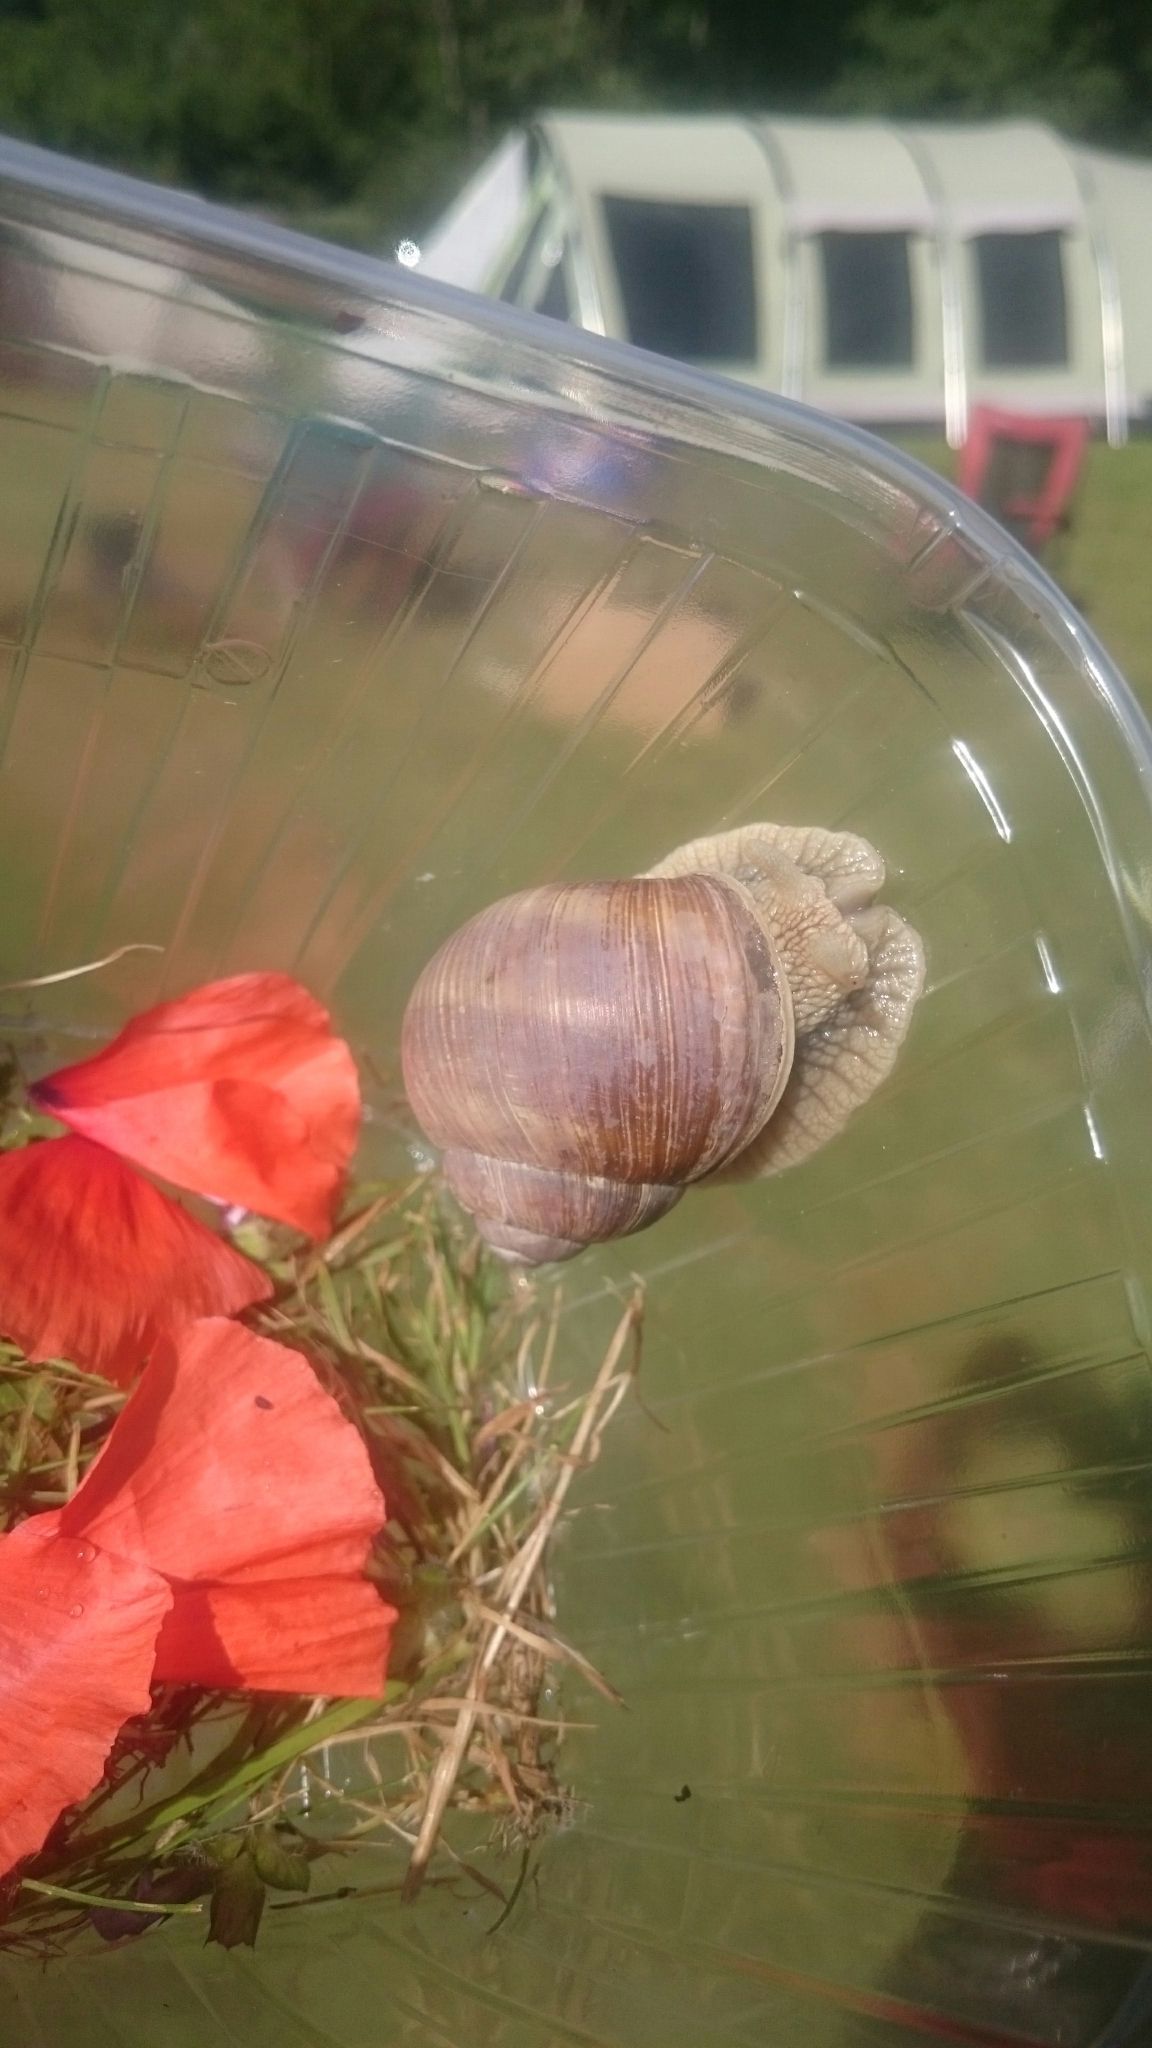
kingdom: Animalia
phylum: Mollusca
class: Gastropoda
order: Stylommatophora
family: Helicidae
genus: Helix
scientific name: Helix pomatia
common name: Roman snail
